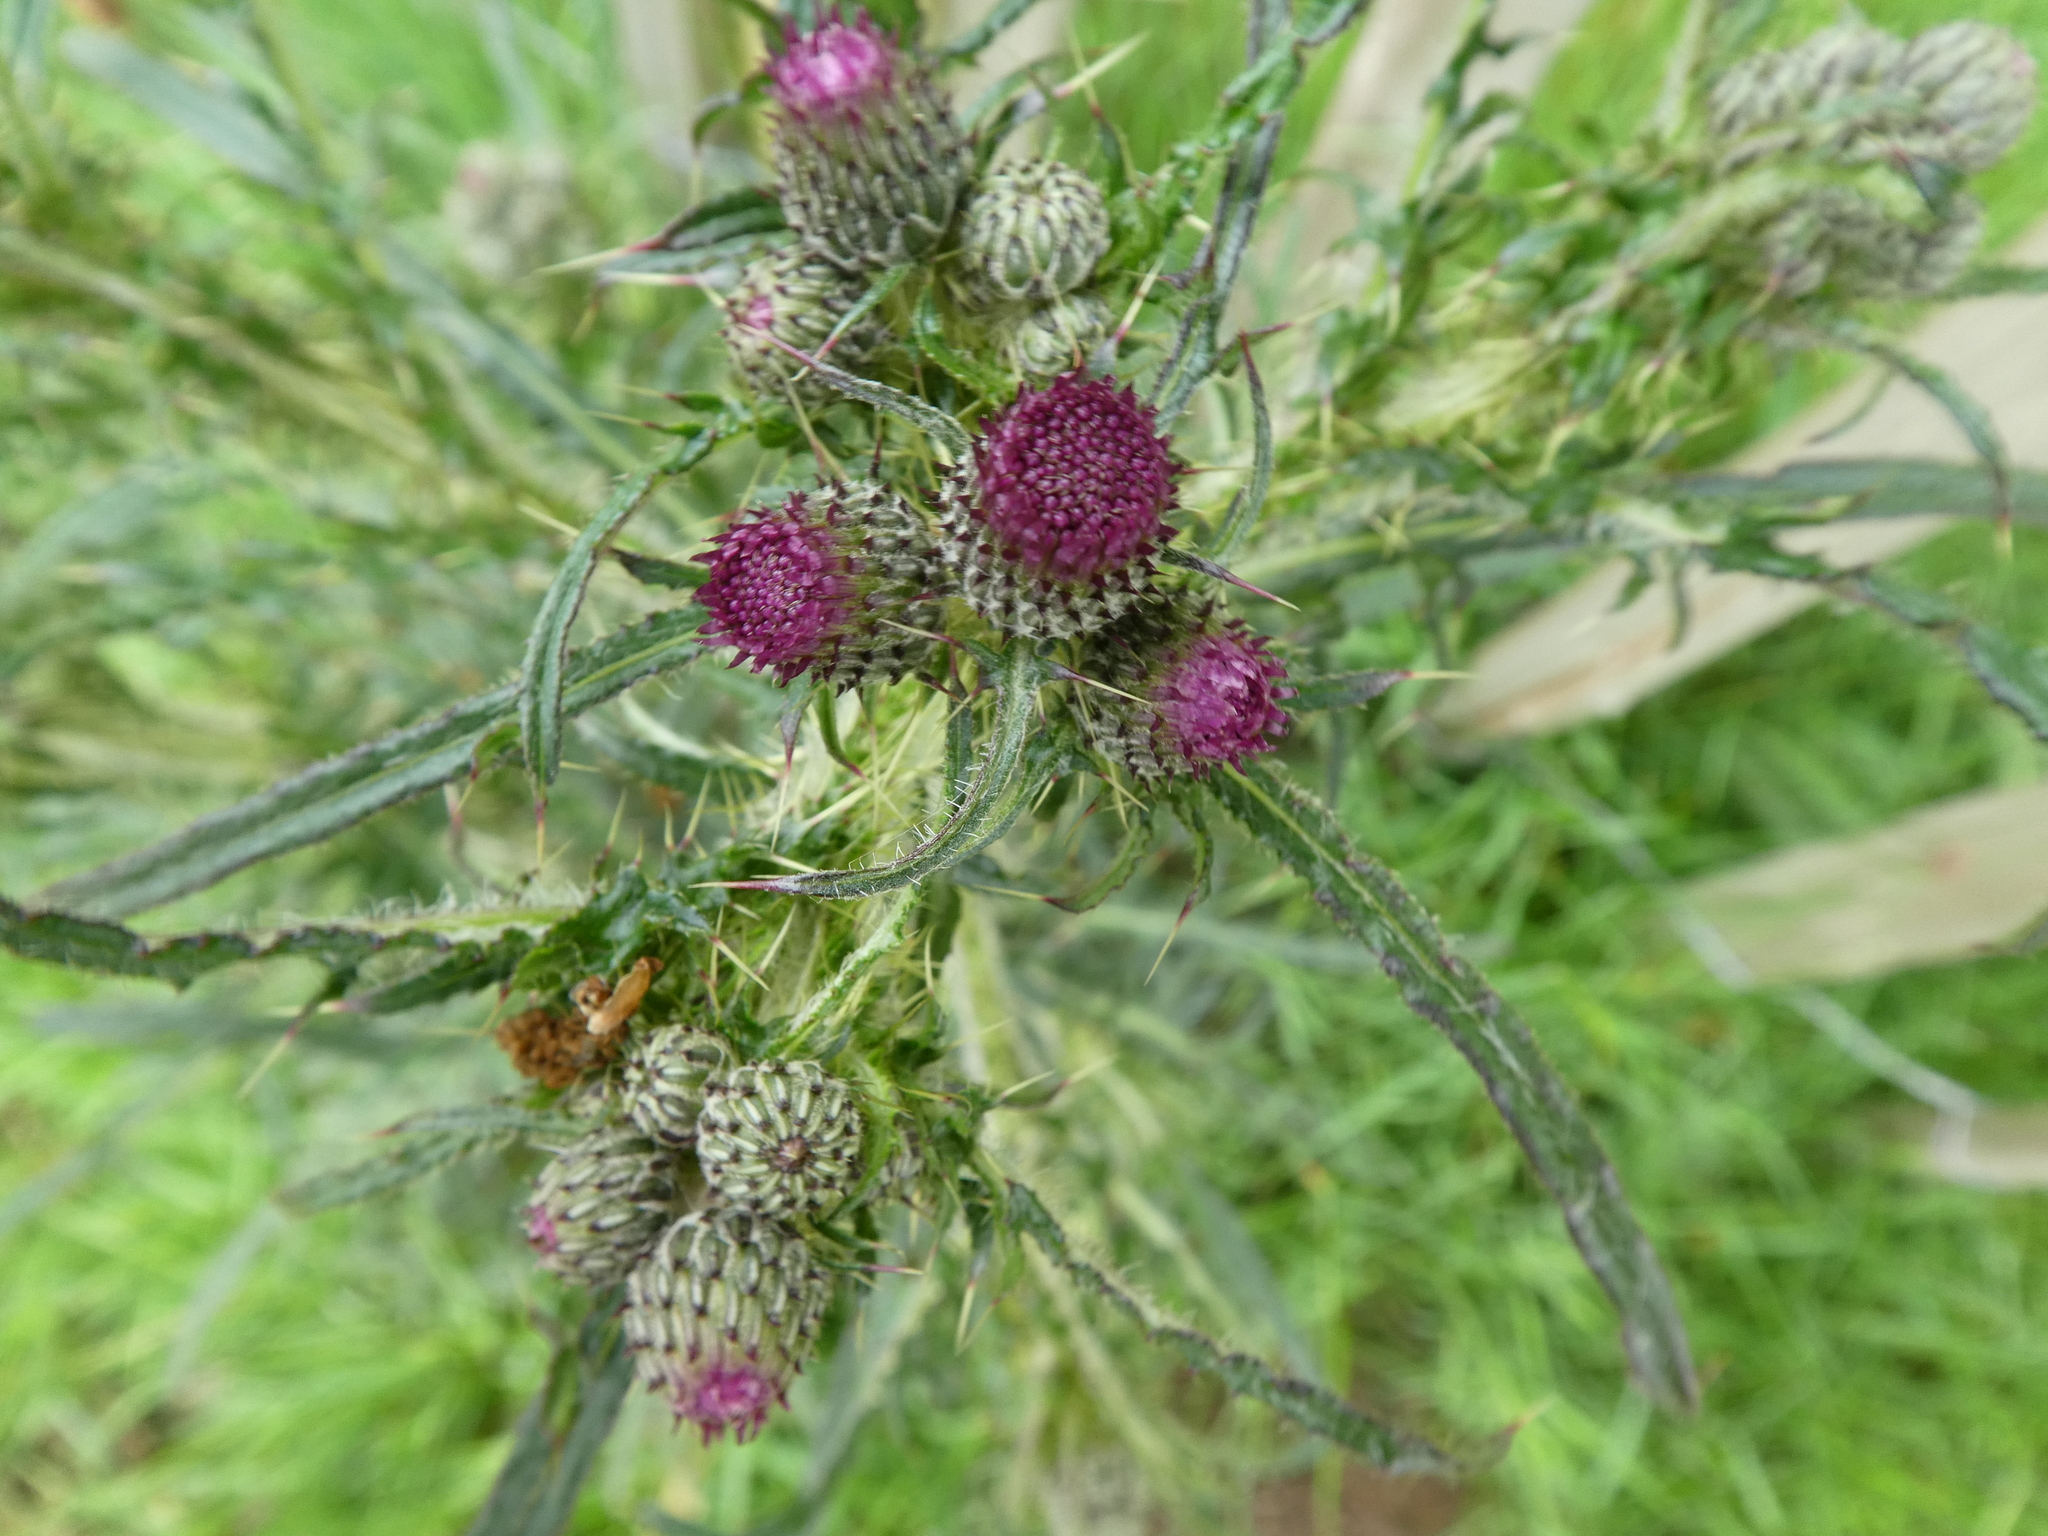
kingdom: Plantae
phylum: Tracheophyta
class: Magnoliopsida
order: Asterales
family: Asteraceae
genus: Cirsium
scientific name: Cirsium palustre
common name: Marsh thistle
